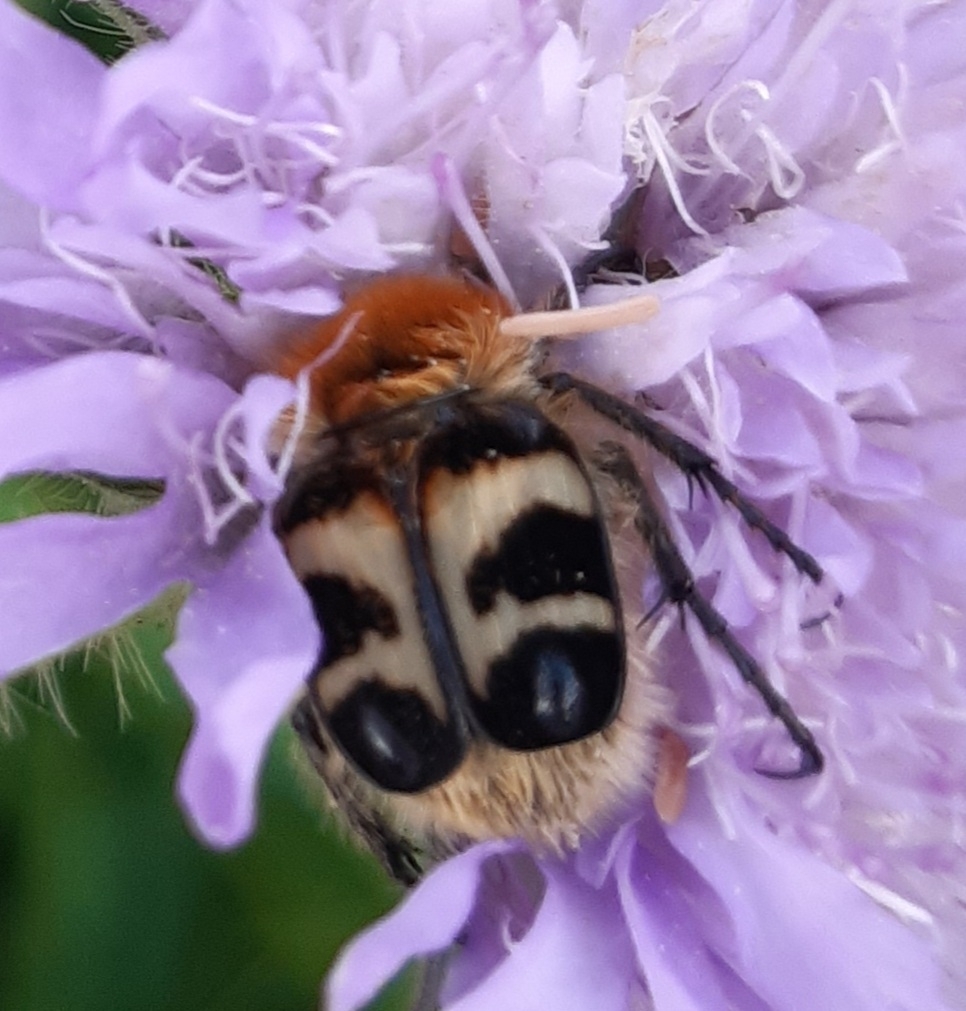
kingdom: Animalia
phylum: Arthropoda
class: Insecta
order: Coleoptera
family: Scarabaeidae
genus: Trichius
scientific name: Trichius fasciatus
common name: Bee beetle
